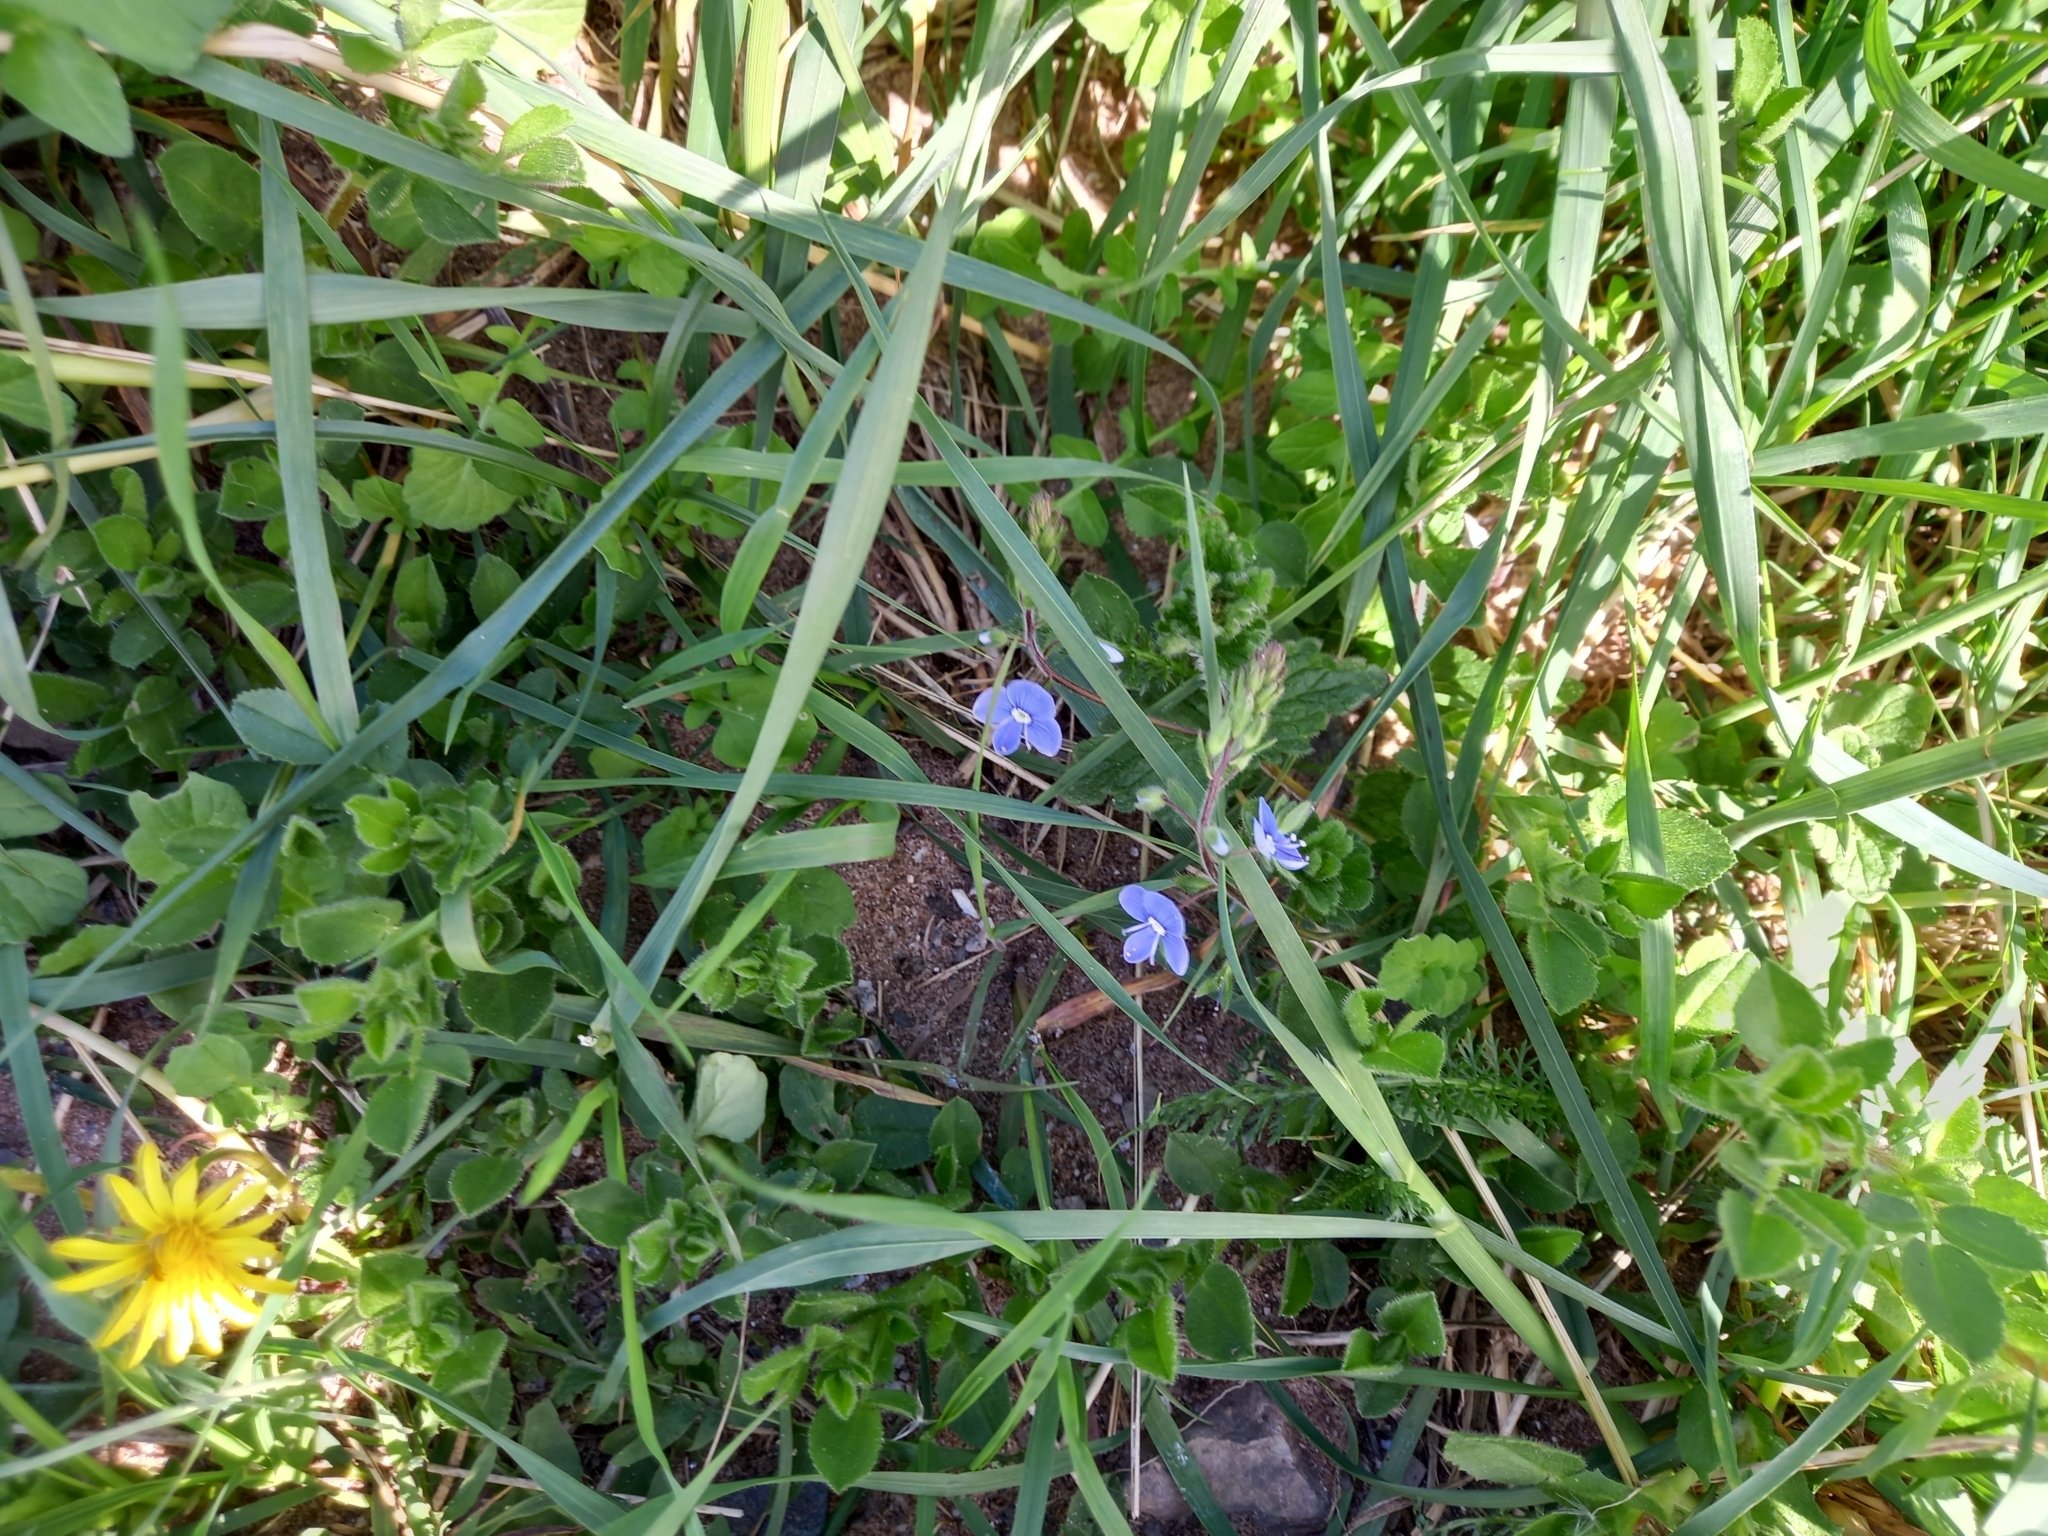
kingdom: Plantae
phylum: Tracheophyta
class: Magnoliopsida
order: Lamiales
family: Plantaginaceae
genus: Veronica
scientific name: Veronica chamaedrys
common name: Germander speedwell
